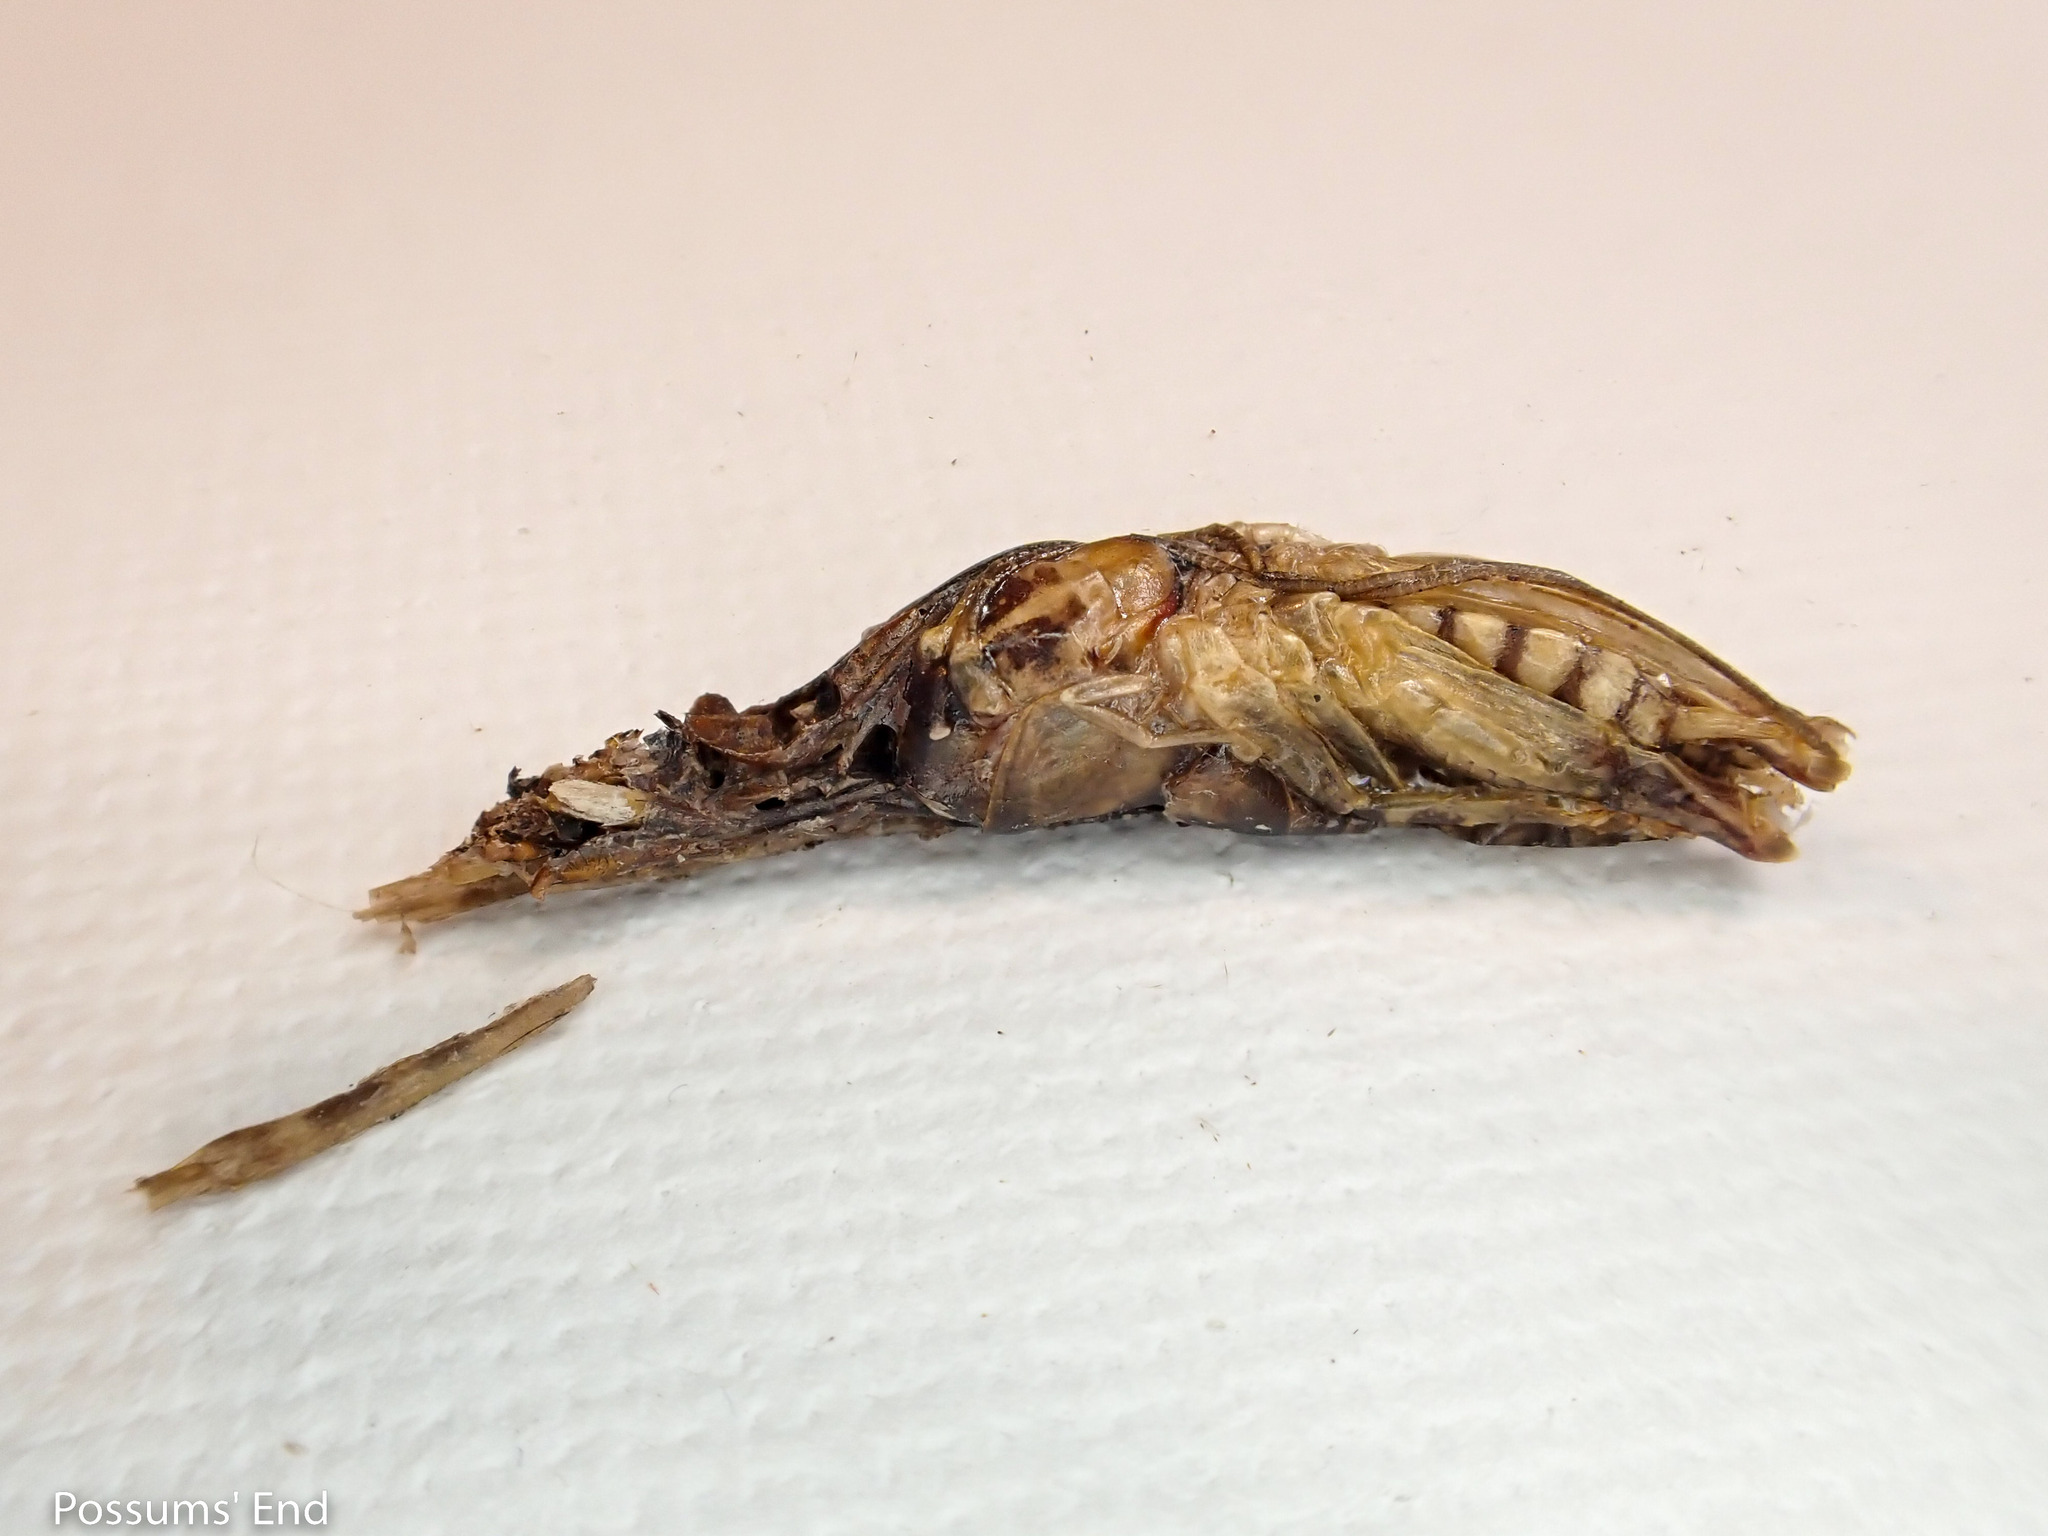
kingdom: Animalia
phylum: Chordata
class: Squamata
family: Diplodactylidae
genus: Woodworthia
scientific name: Woodworthia
